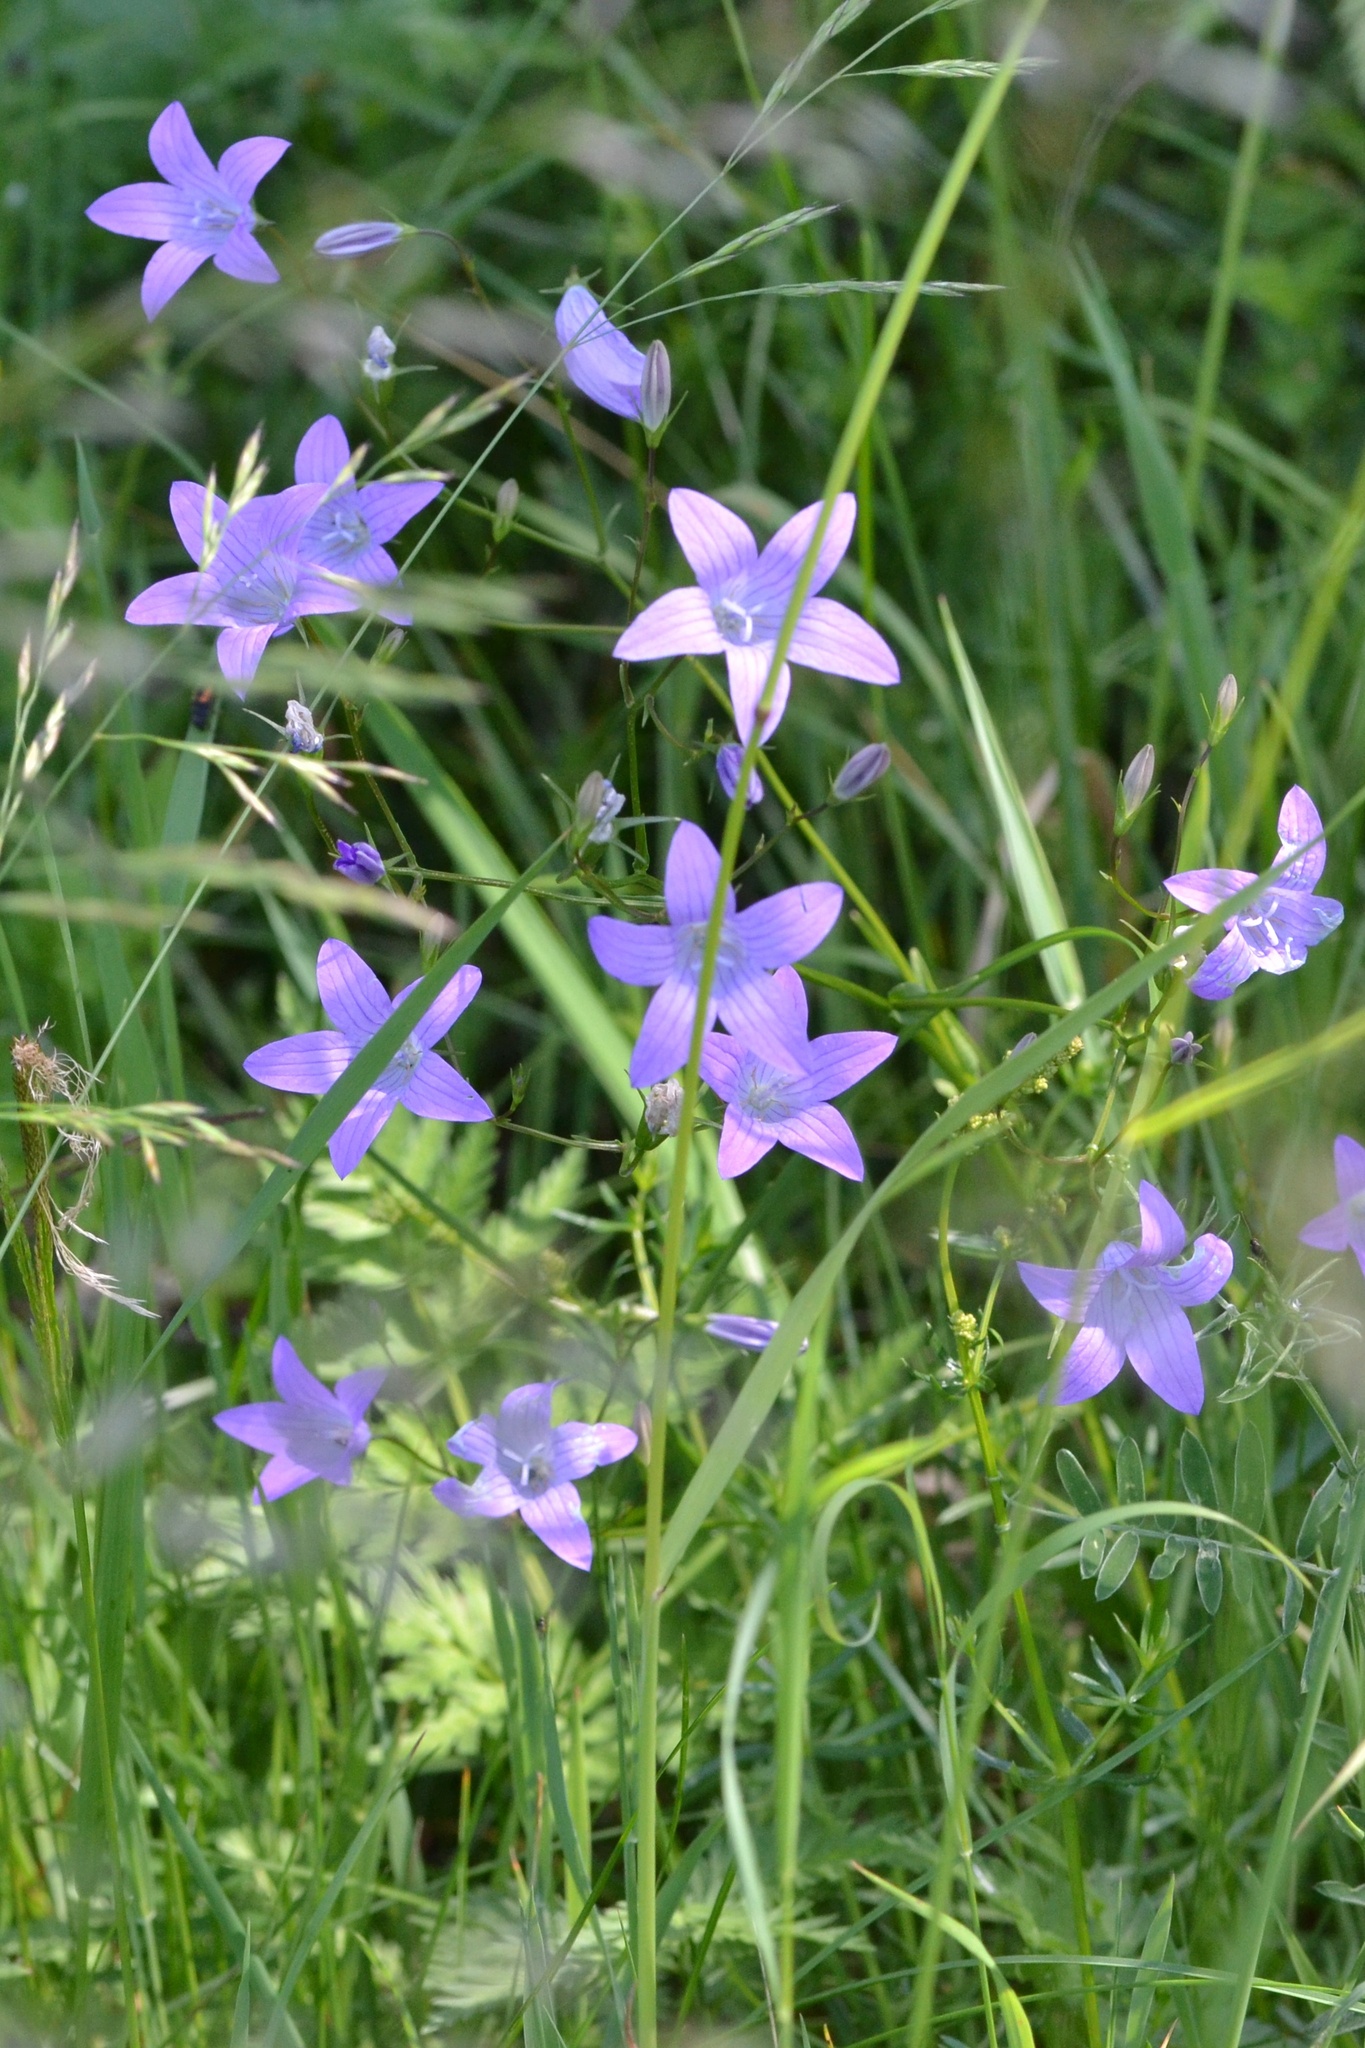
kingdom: Plantae
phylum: Tracheophyta
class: Magnoliopsida
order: Asterales
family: Campanulaceae
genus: Campanula
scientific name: Campanula patula
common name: Spreading bellflower
